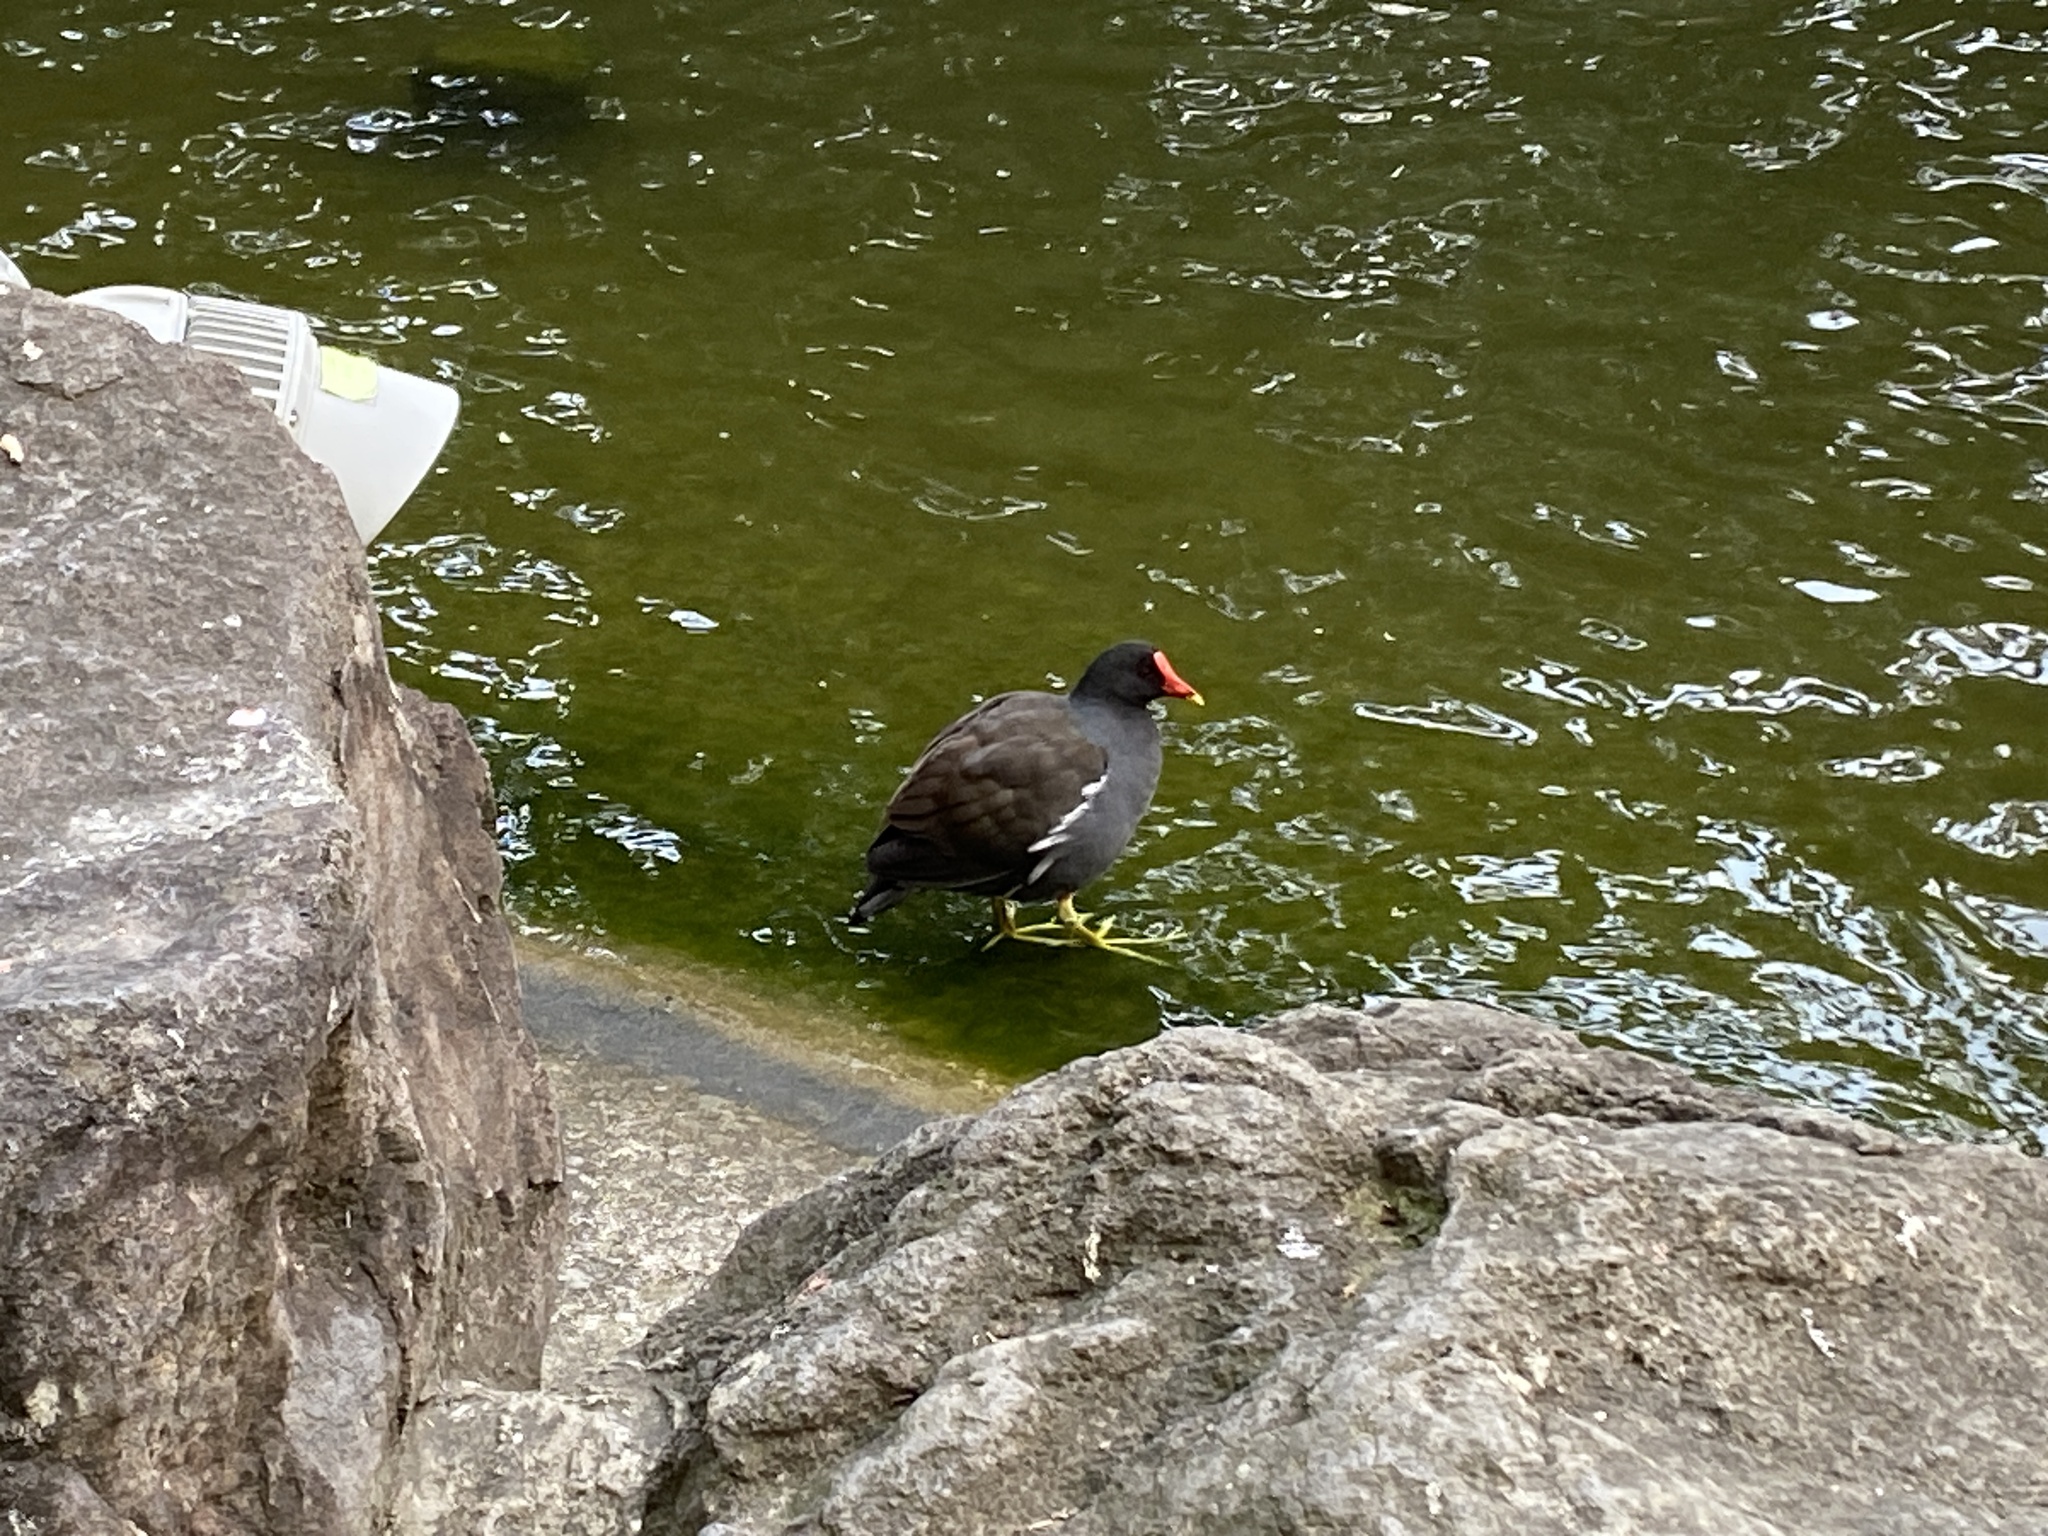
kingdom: Animalia
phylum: Chordata
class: Aves
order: Gruiformes
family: Rallidae
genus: Gallinula
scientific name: Gallinula chloropus
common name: Common moorhen
